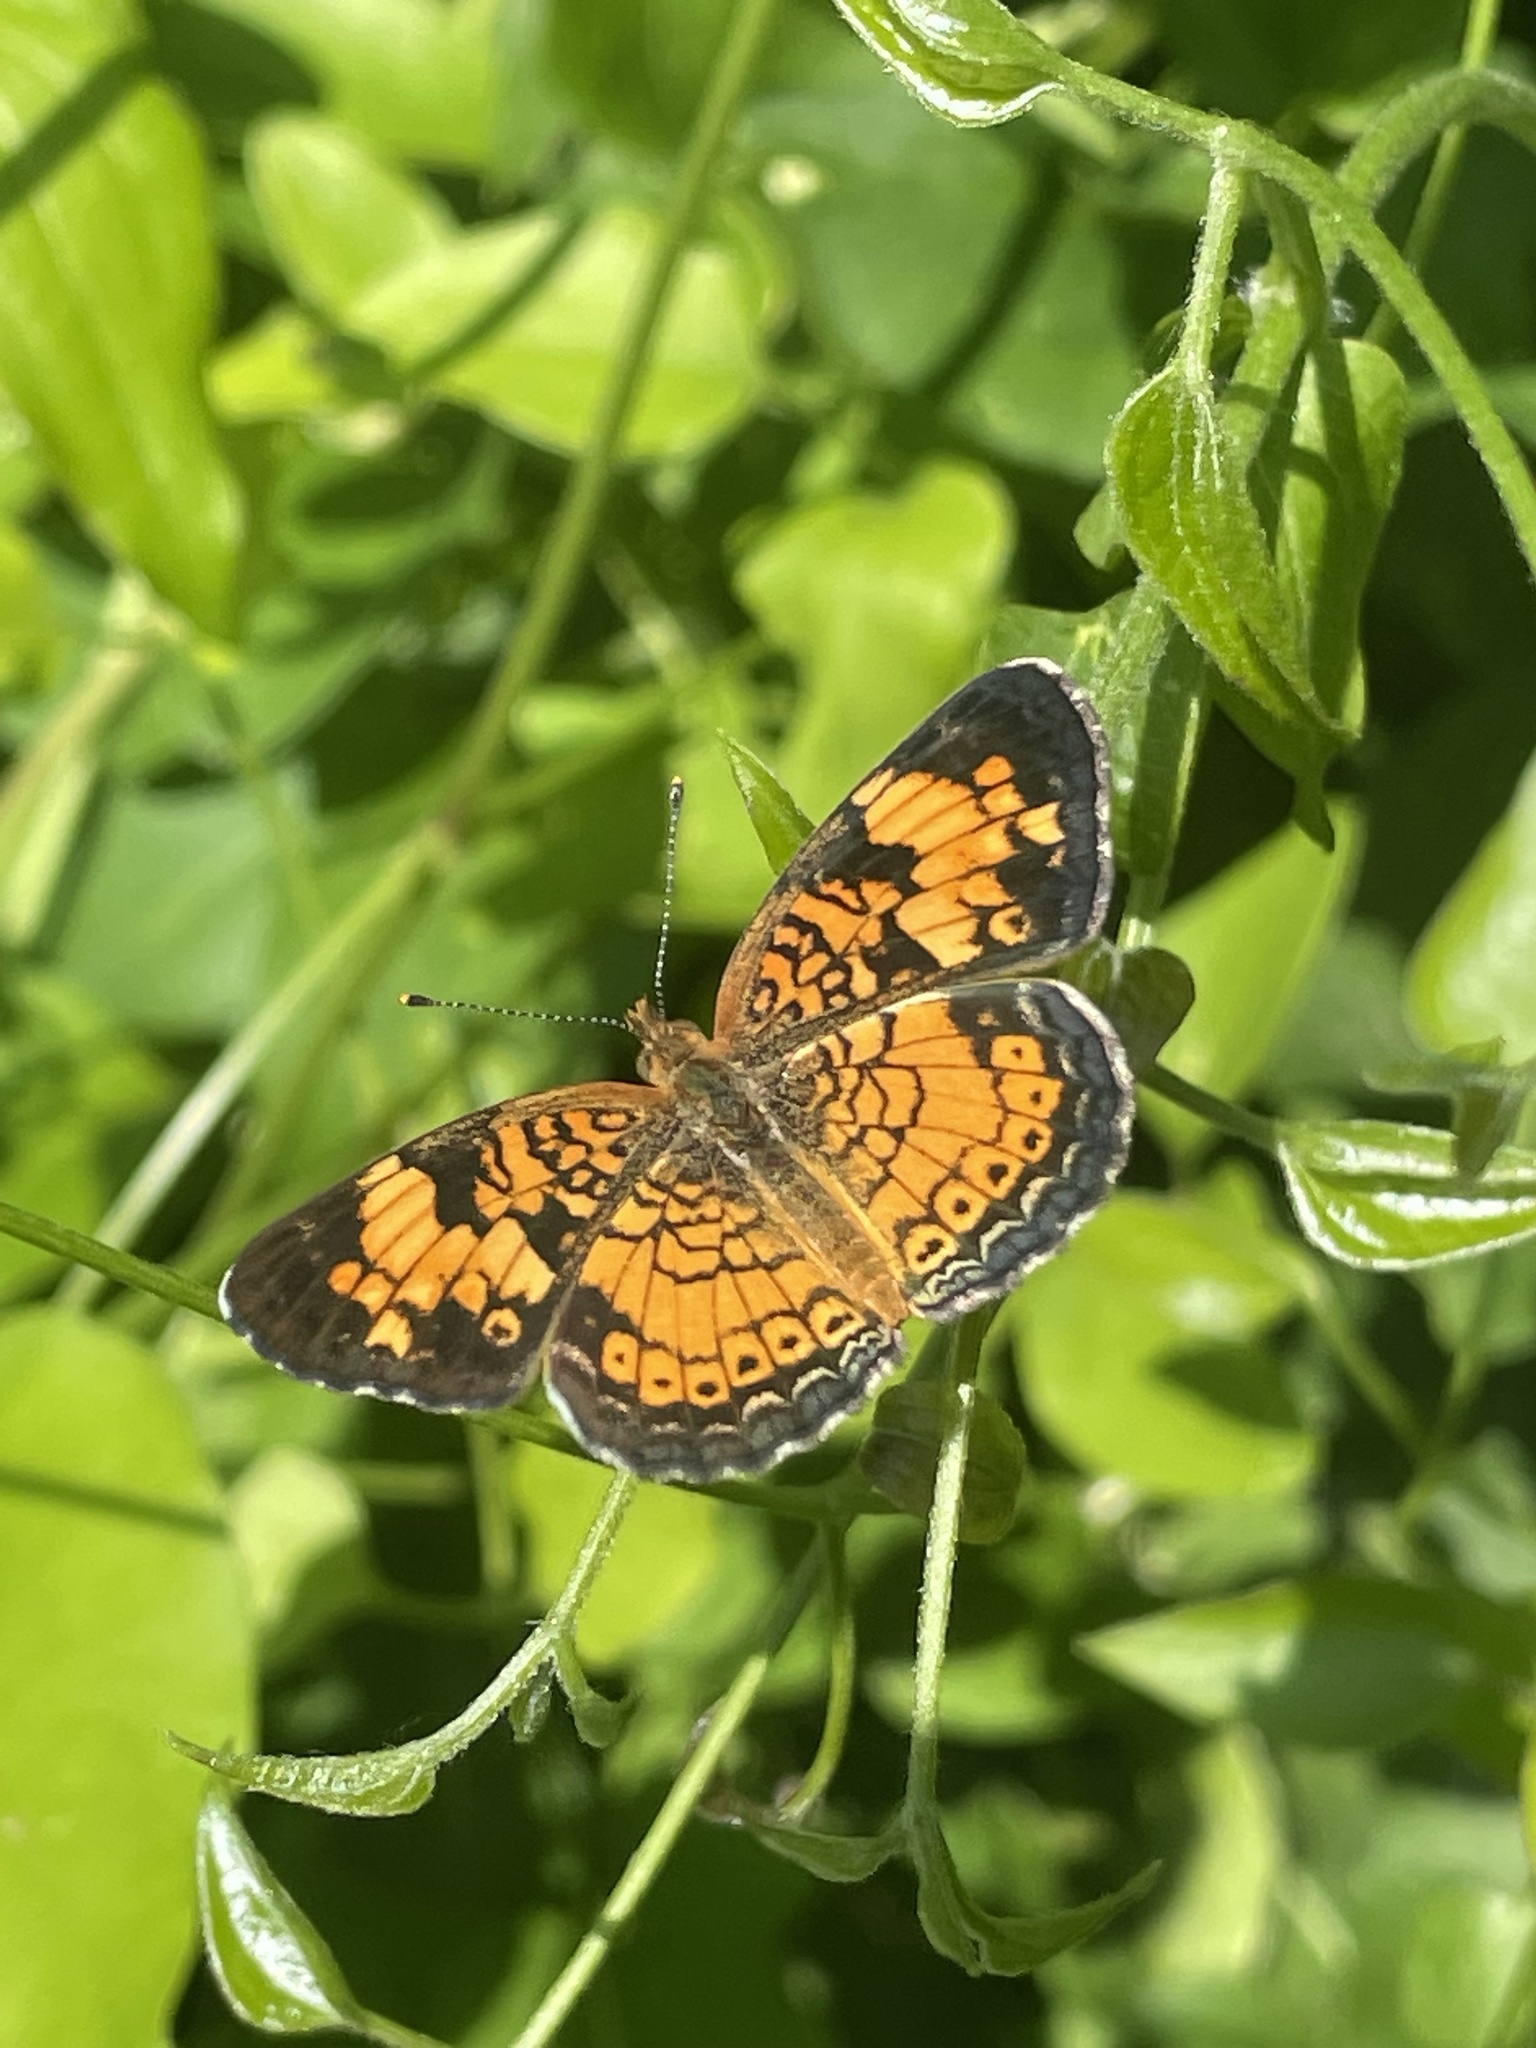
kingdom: Animalia
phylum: Arthropoda
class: Insecta
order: Lepidoptera
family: Nymphalidae
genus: Phyciodes
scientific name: Phyciodes tharos
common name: Pearl crescent
